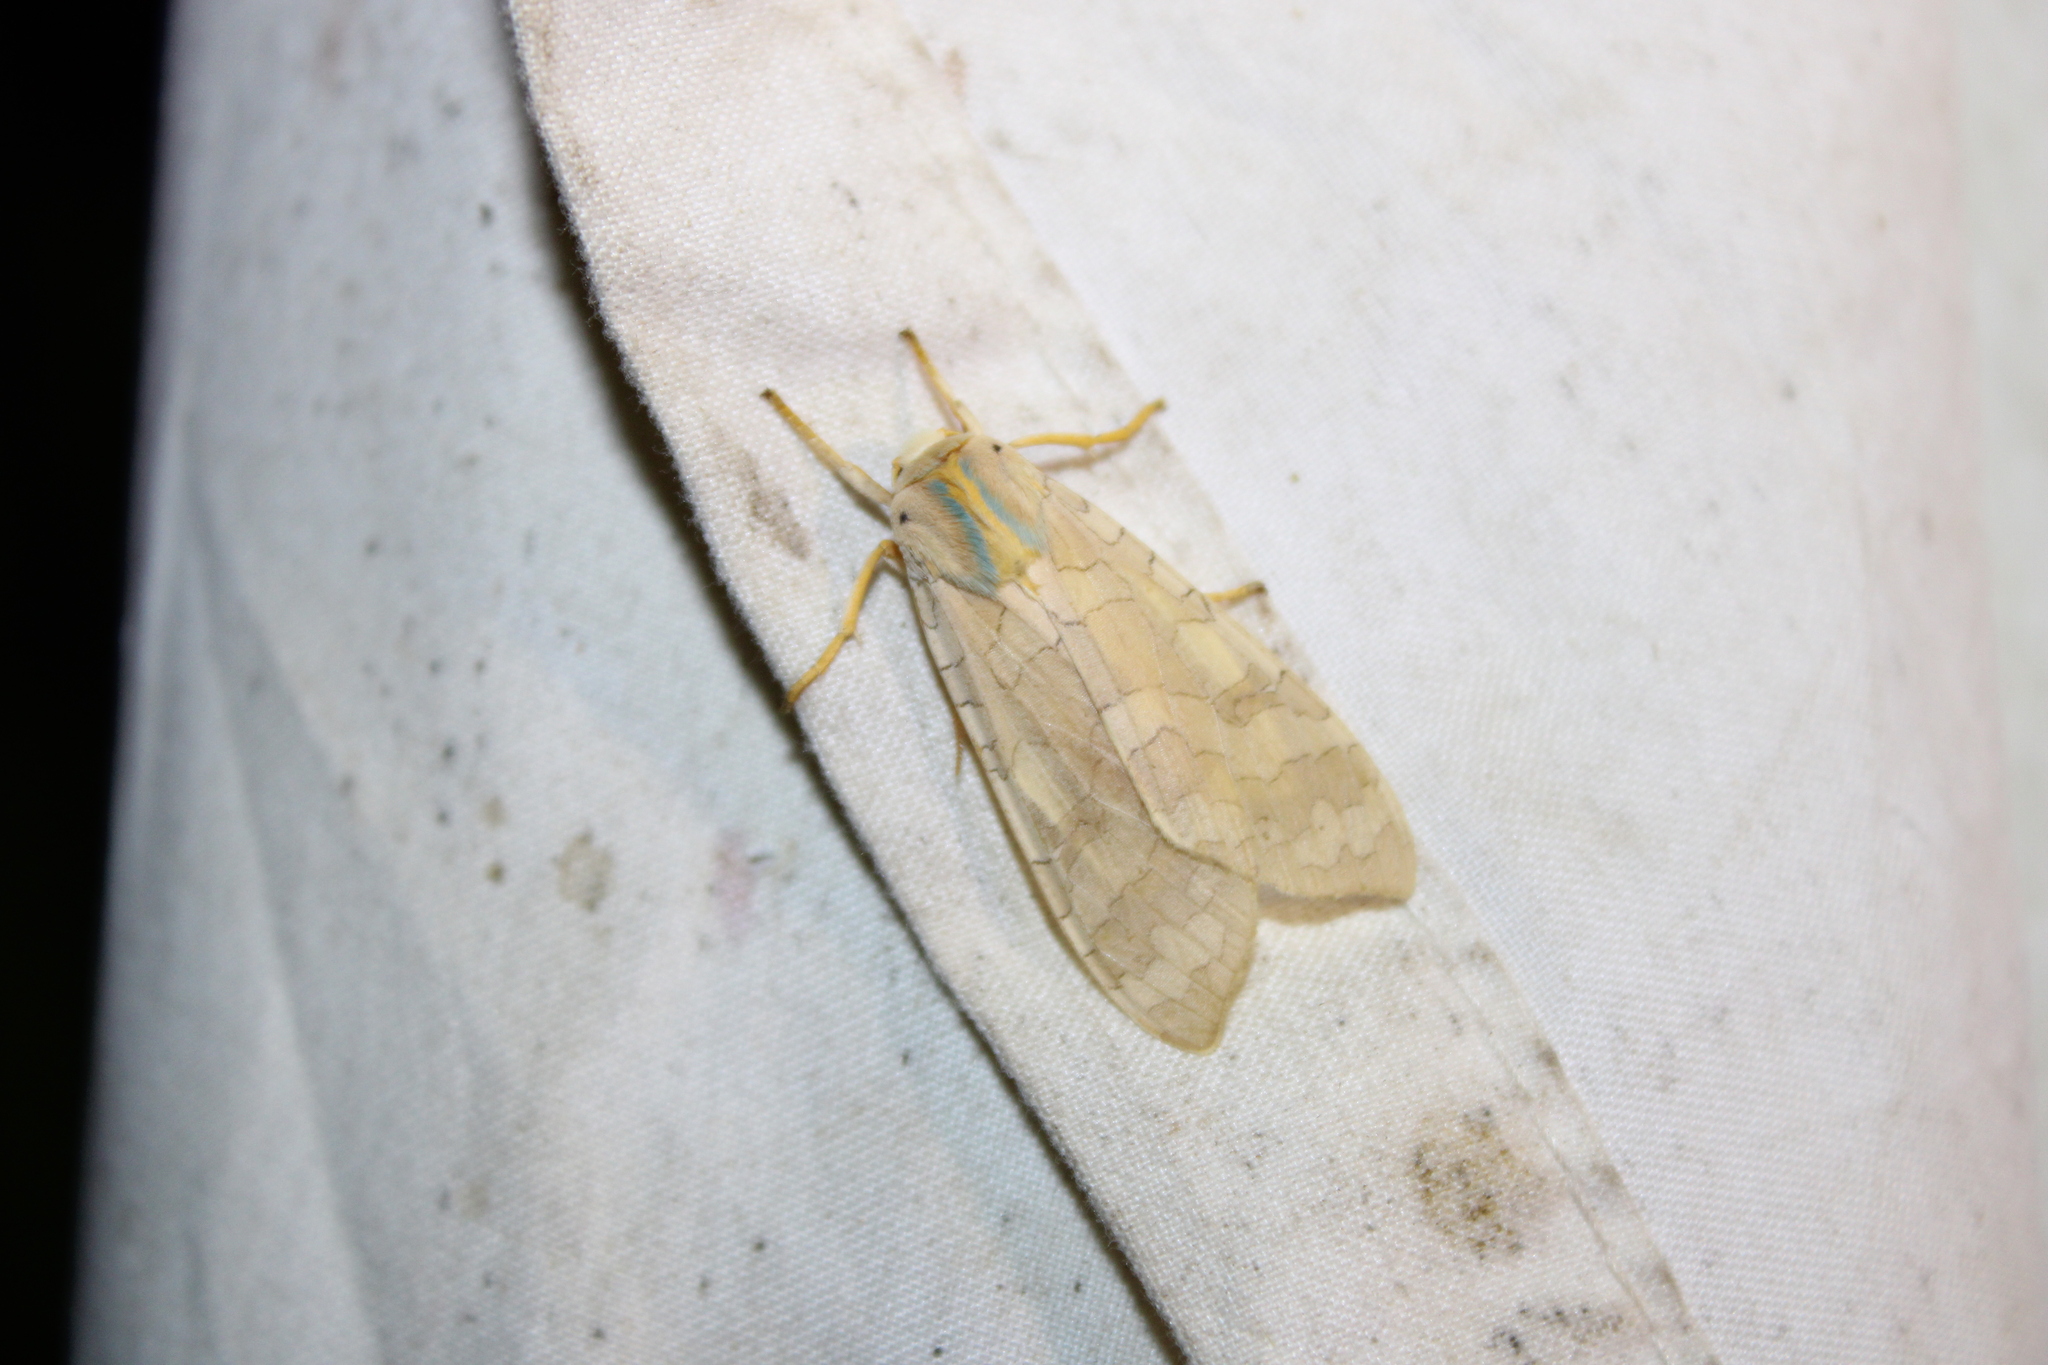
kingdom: Animalia
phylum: Arthropoda
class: Insecta
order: Lepidoptera
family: Erebidae
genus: Halysidota
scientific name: Halysidota
